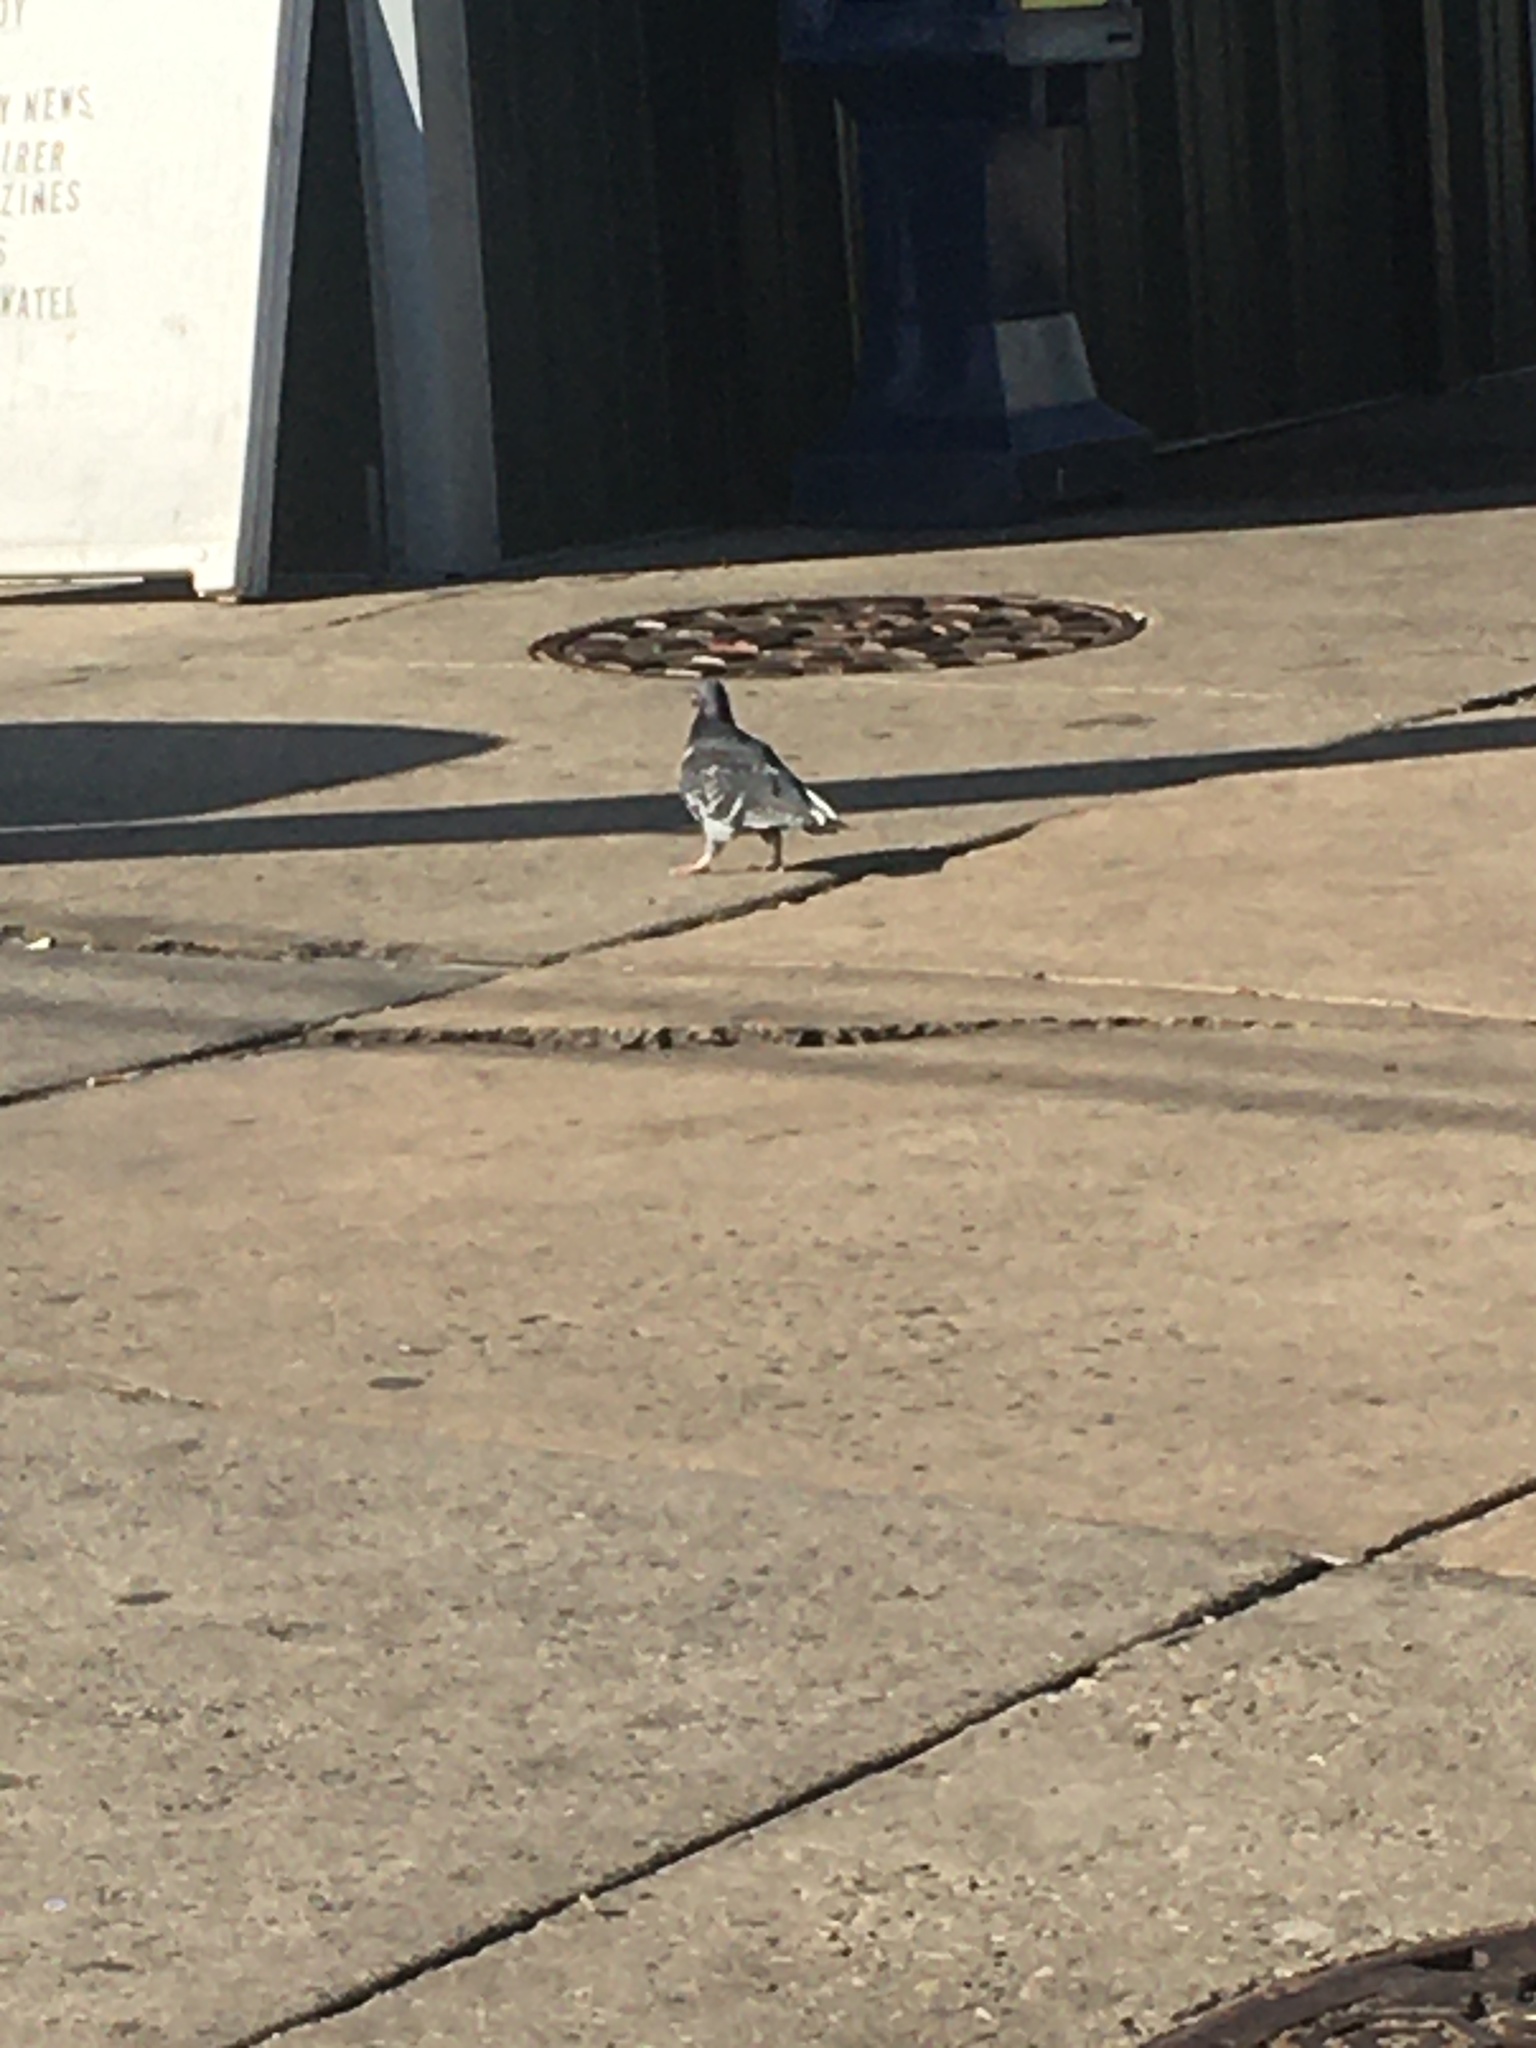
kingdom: Animalia
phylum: Chordata
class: Aves
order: Columbiformes
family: Columbidae
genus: Columba
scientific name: Columba livia
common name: Rock pigeon
